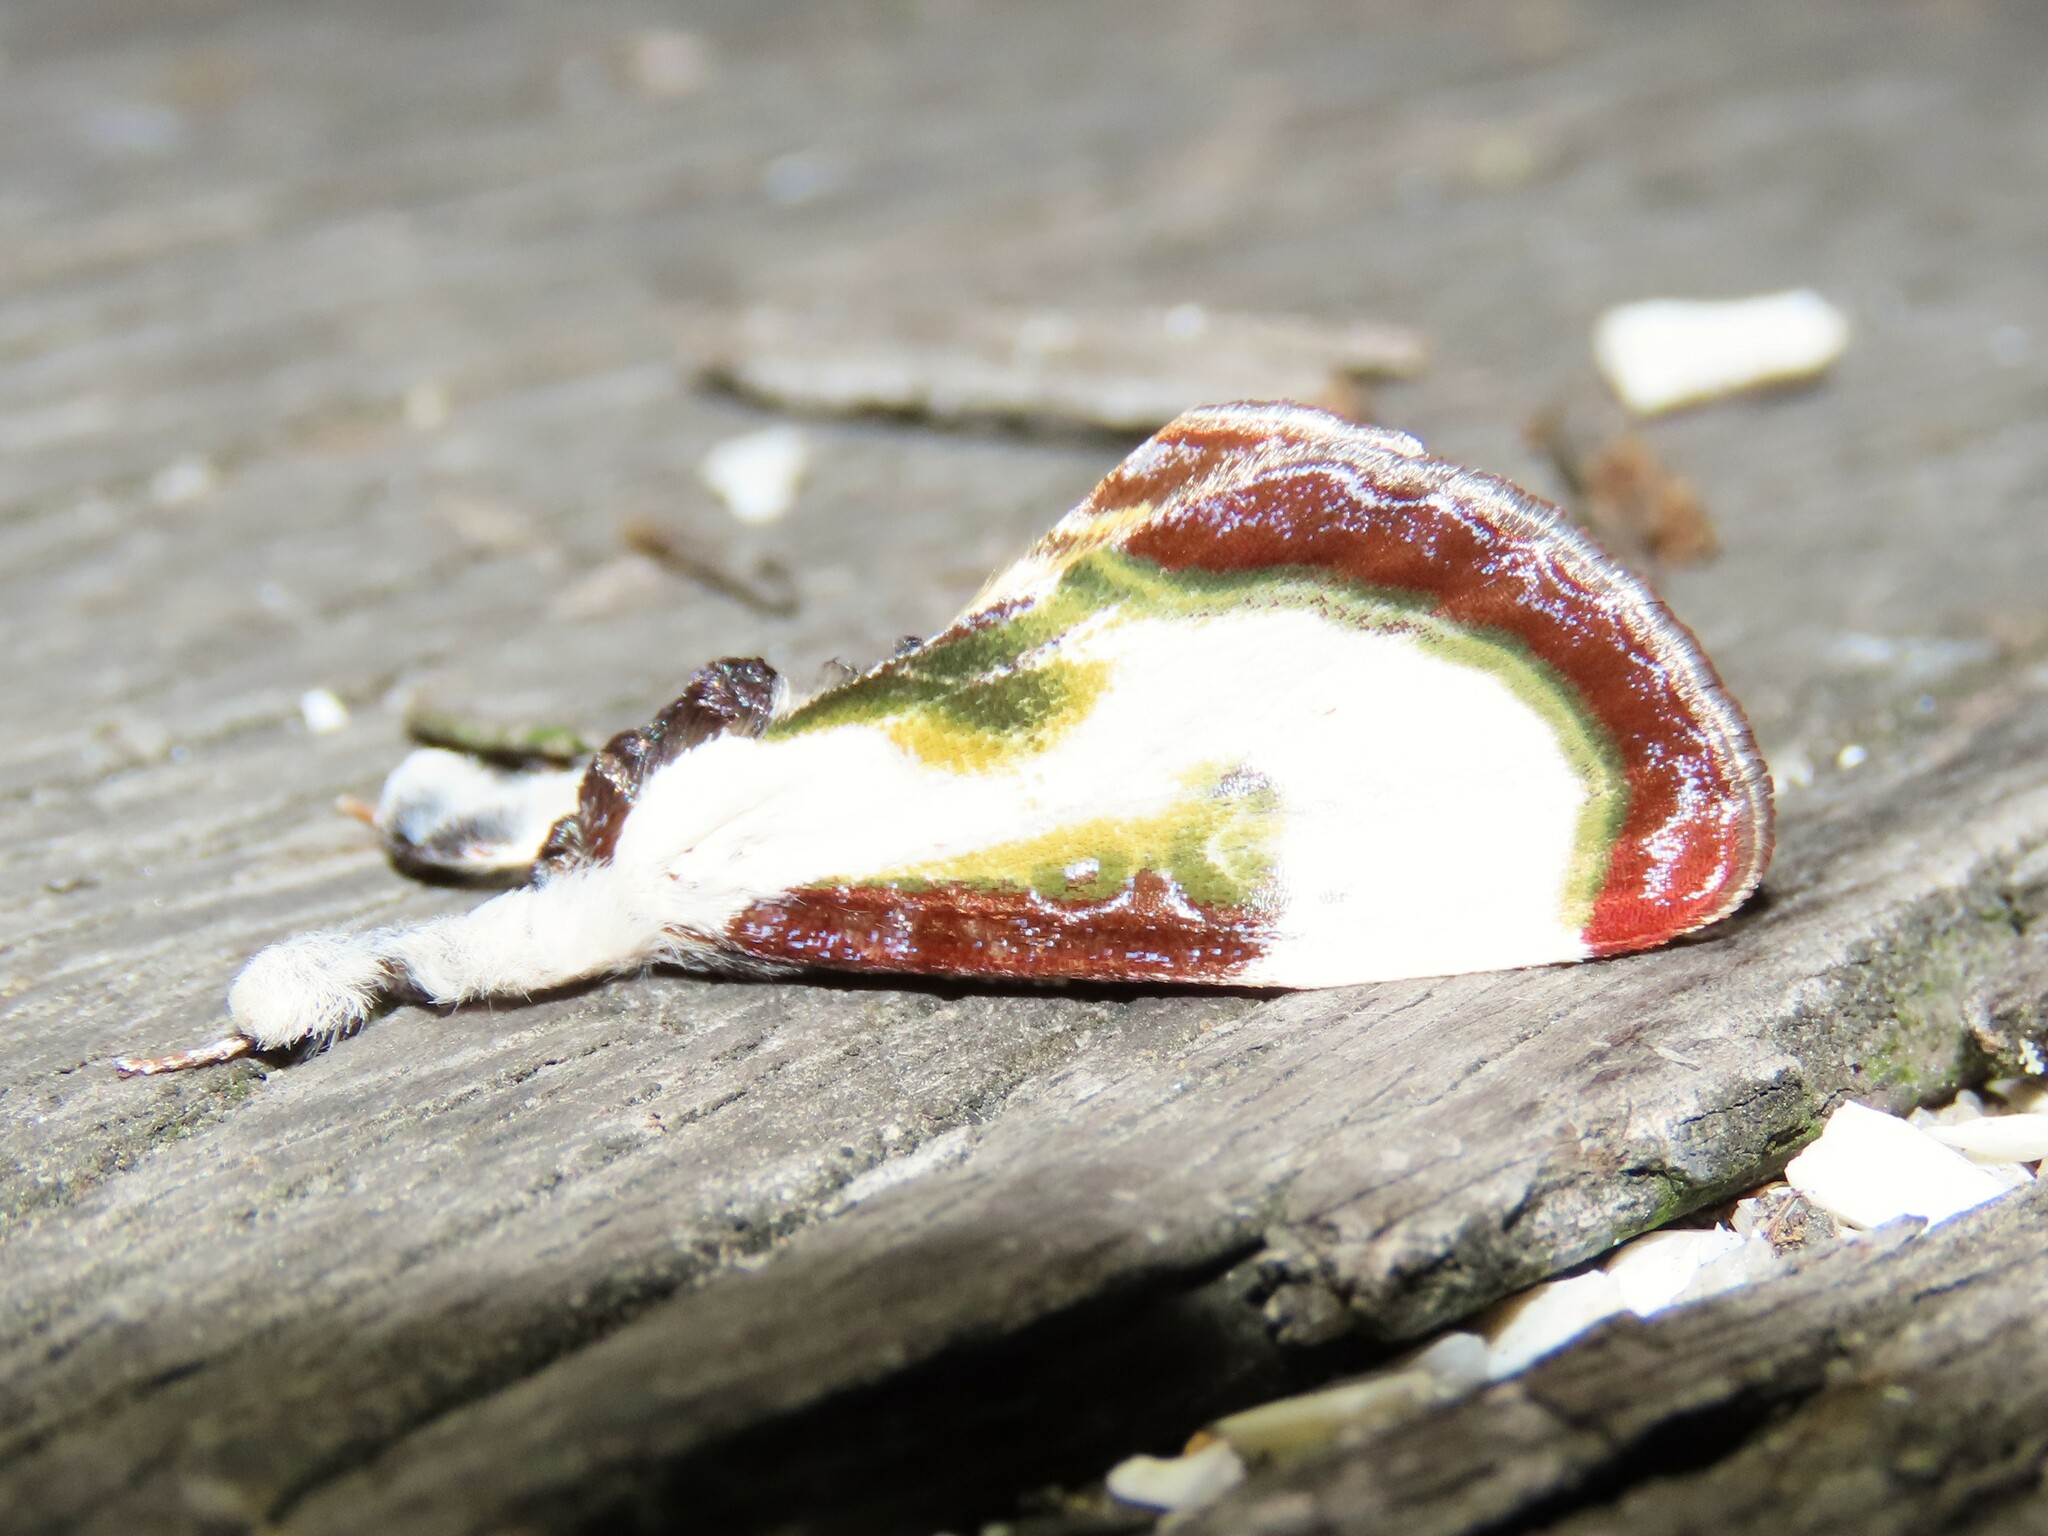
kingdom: Animalia
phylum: Arthropoda
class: Insecta
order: Lepidoptera
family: Noctuidae
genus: Eudryas
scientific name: Eudryas grata
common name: Beautiful wood-nymph
